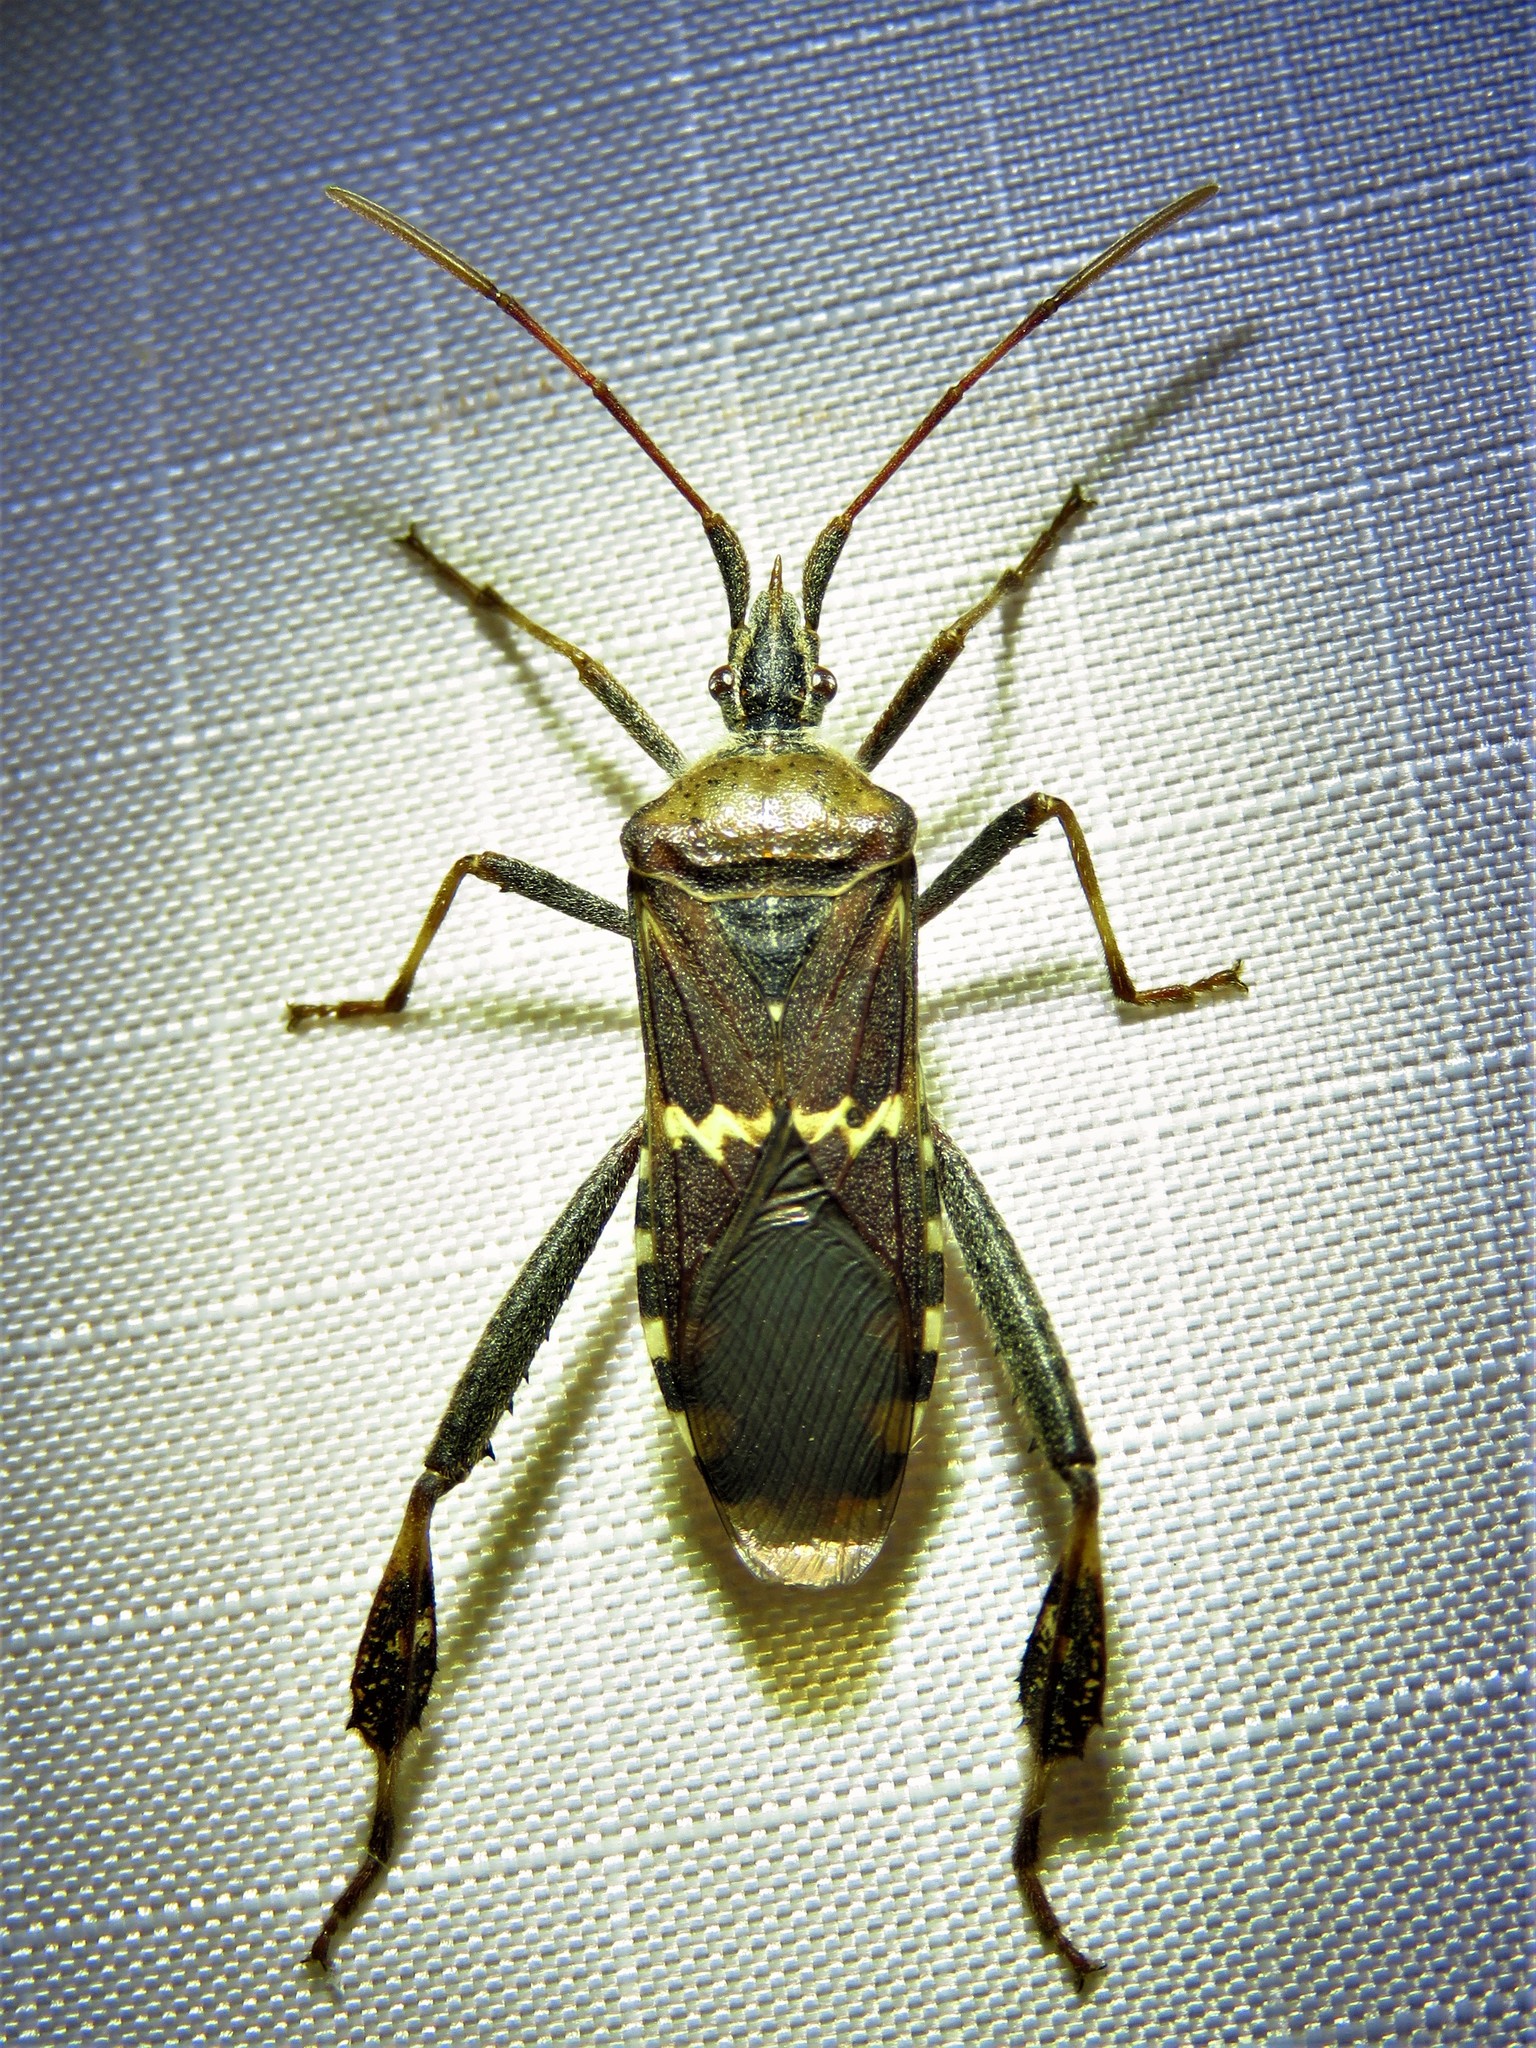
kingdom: Animalia
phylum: Arthropoda
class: Insecta
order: Hemiptera
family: Coreidae
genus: Leptoglossus
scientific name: Leptoglossus clypealis
